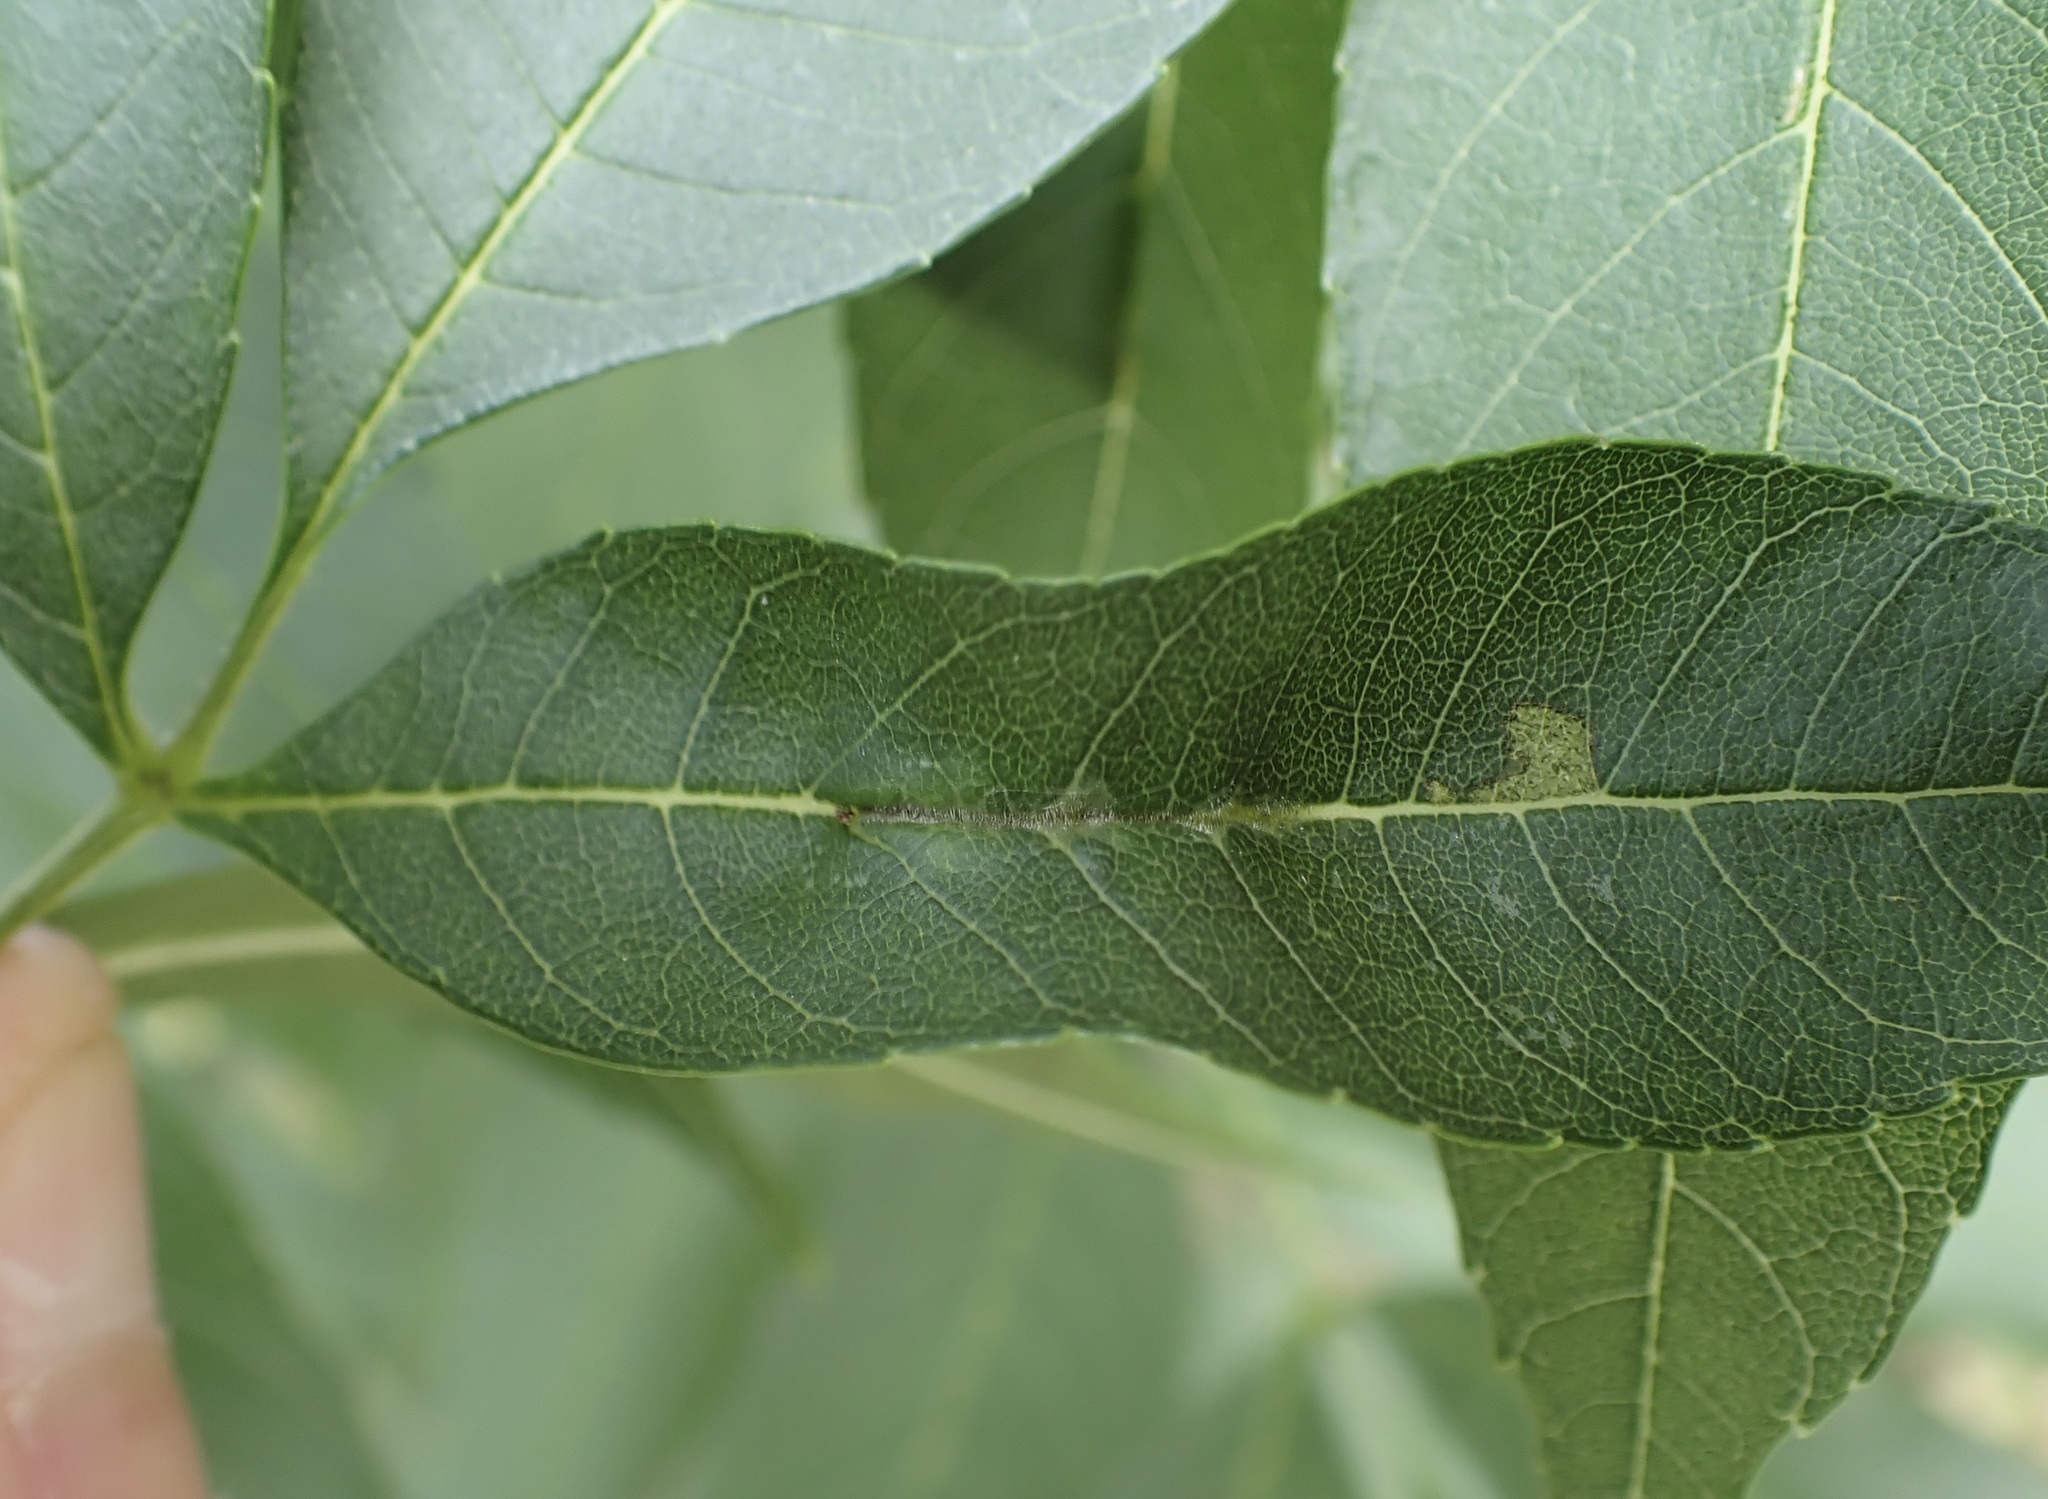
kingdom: Animalia
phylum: Arthropoda
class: Insecta
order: Diptera
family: Cecidomyiidae
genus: Dasineura
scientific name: Dasineura fraxini
